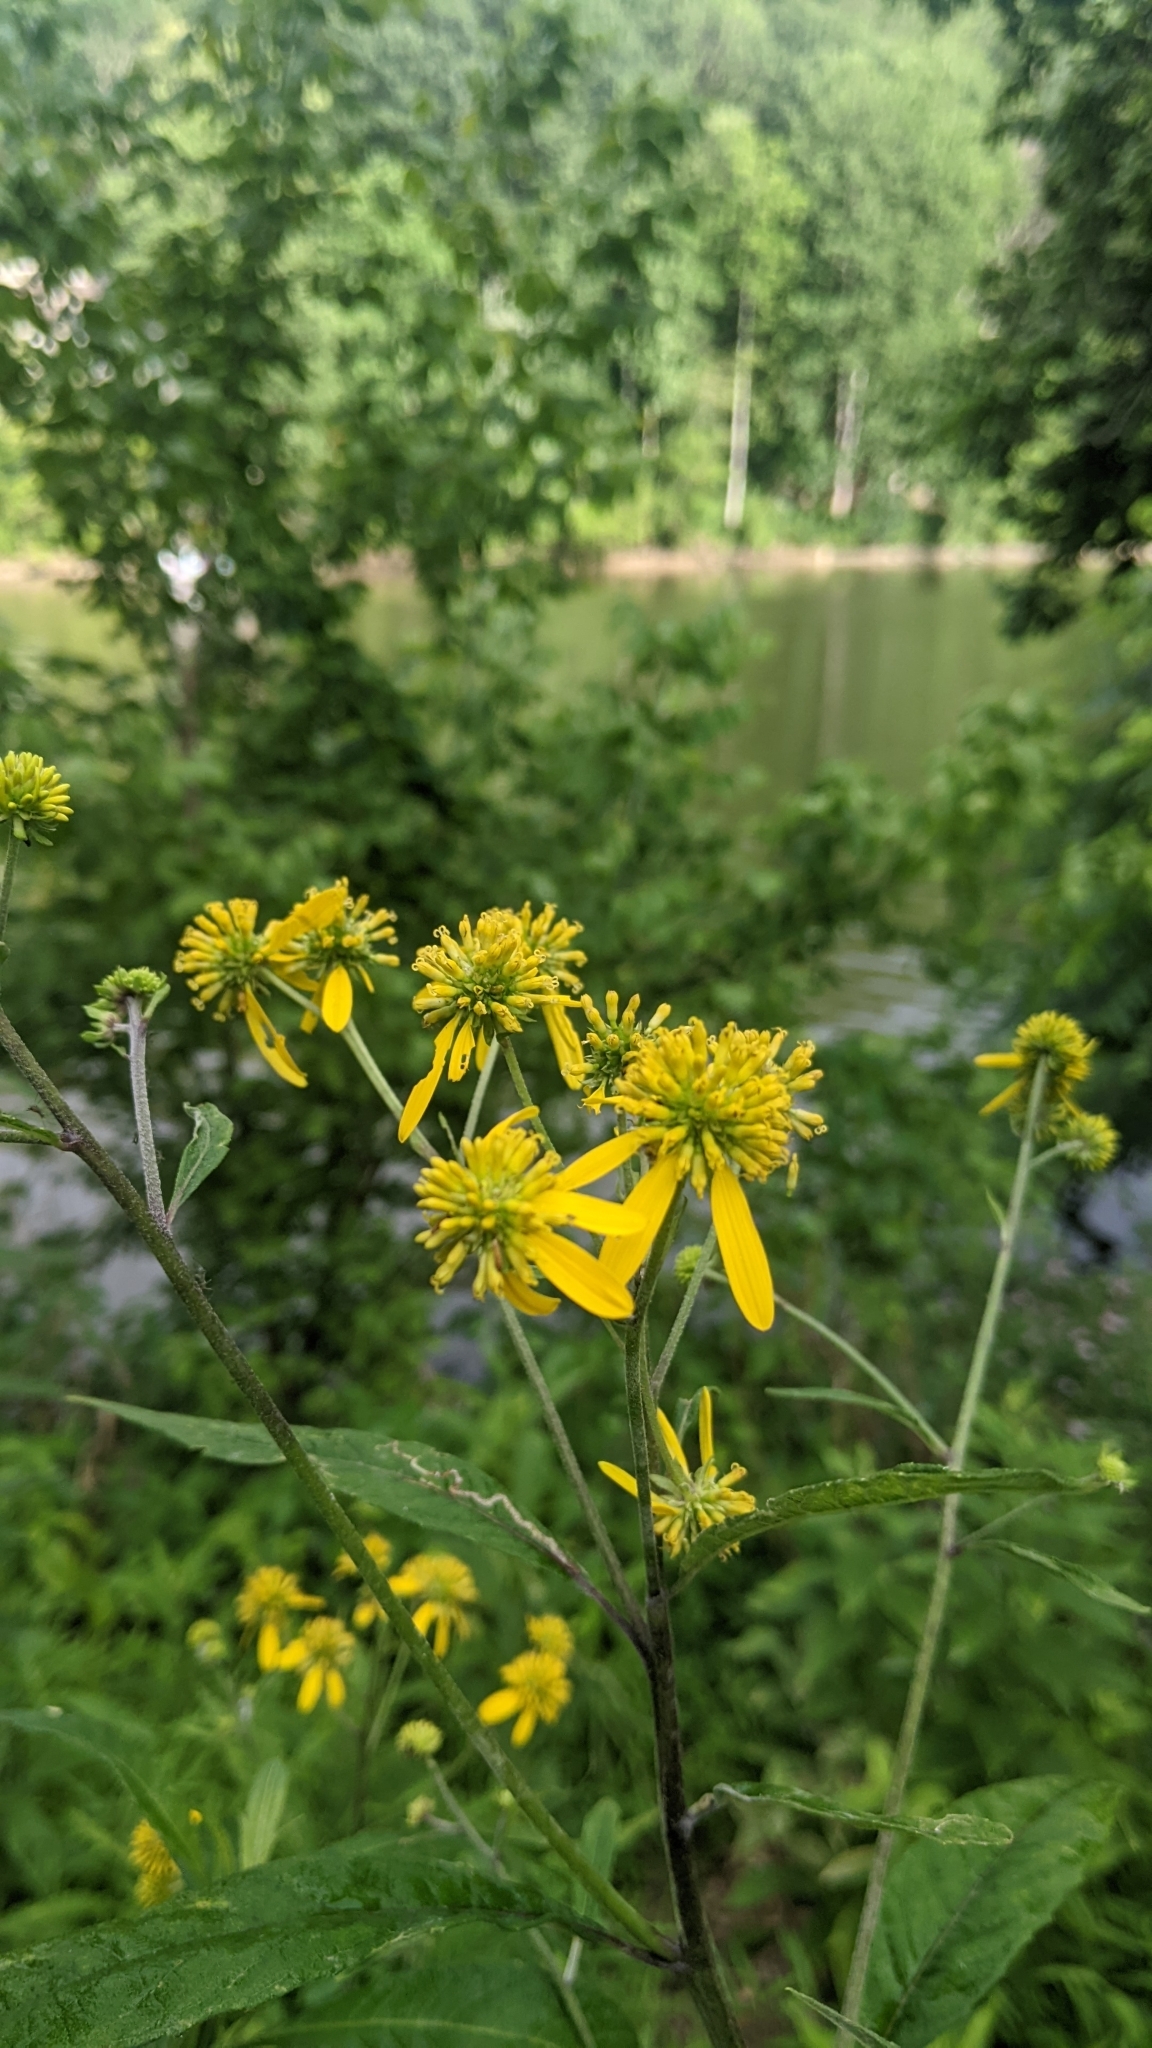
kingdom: Plantae
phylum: Tracheophyta
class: Magnoliopsida
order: Asterales
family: Asteraceae
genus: Verbesina
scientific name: Verbesina alternifolia
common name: Wingstem
